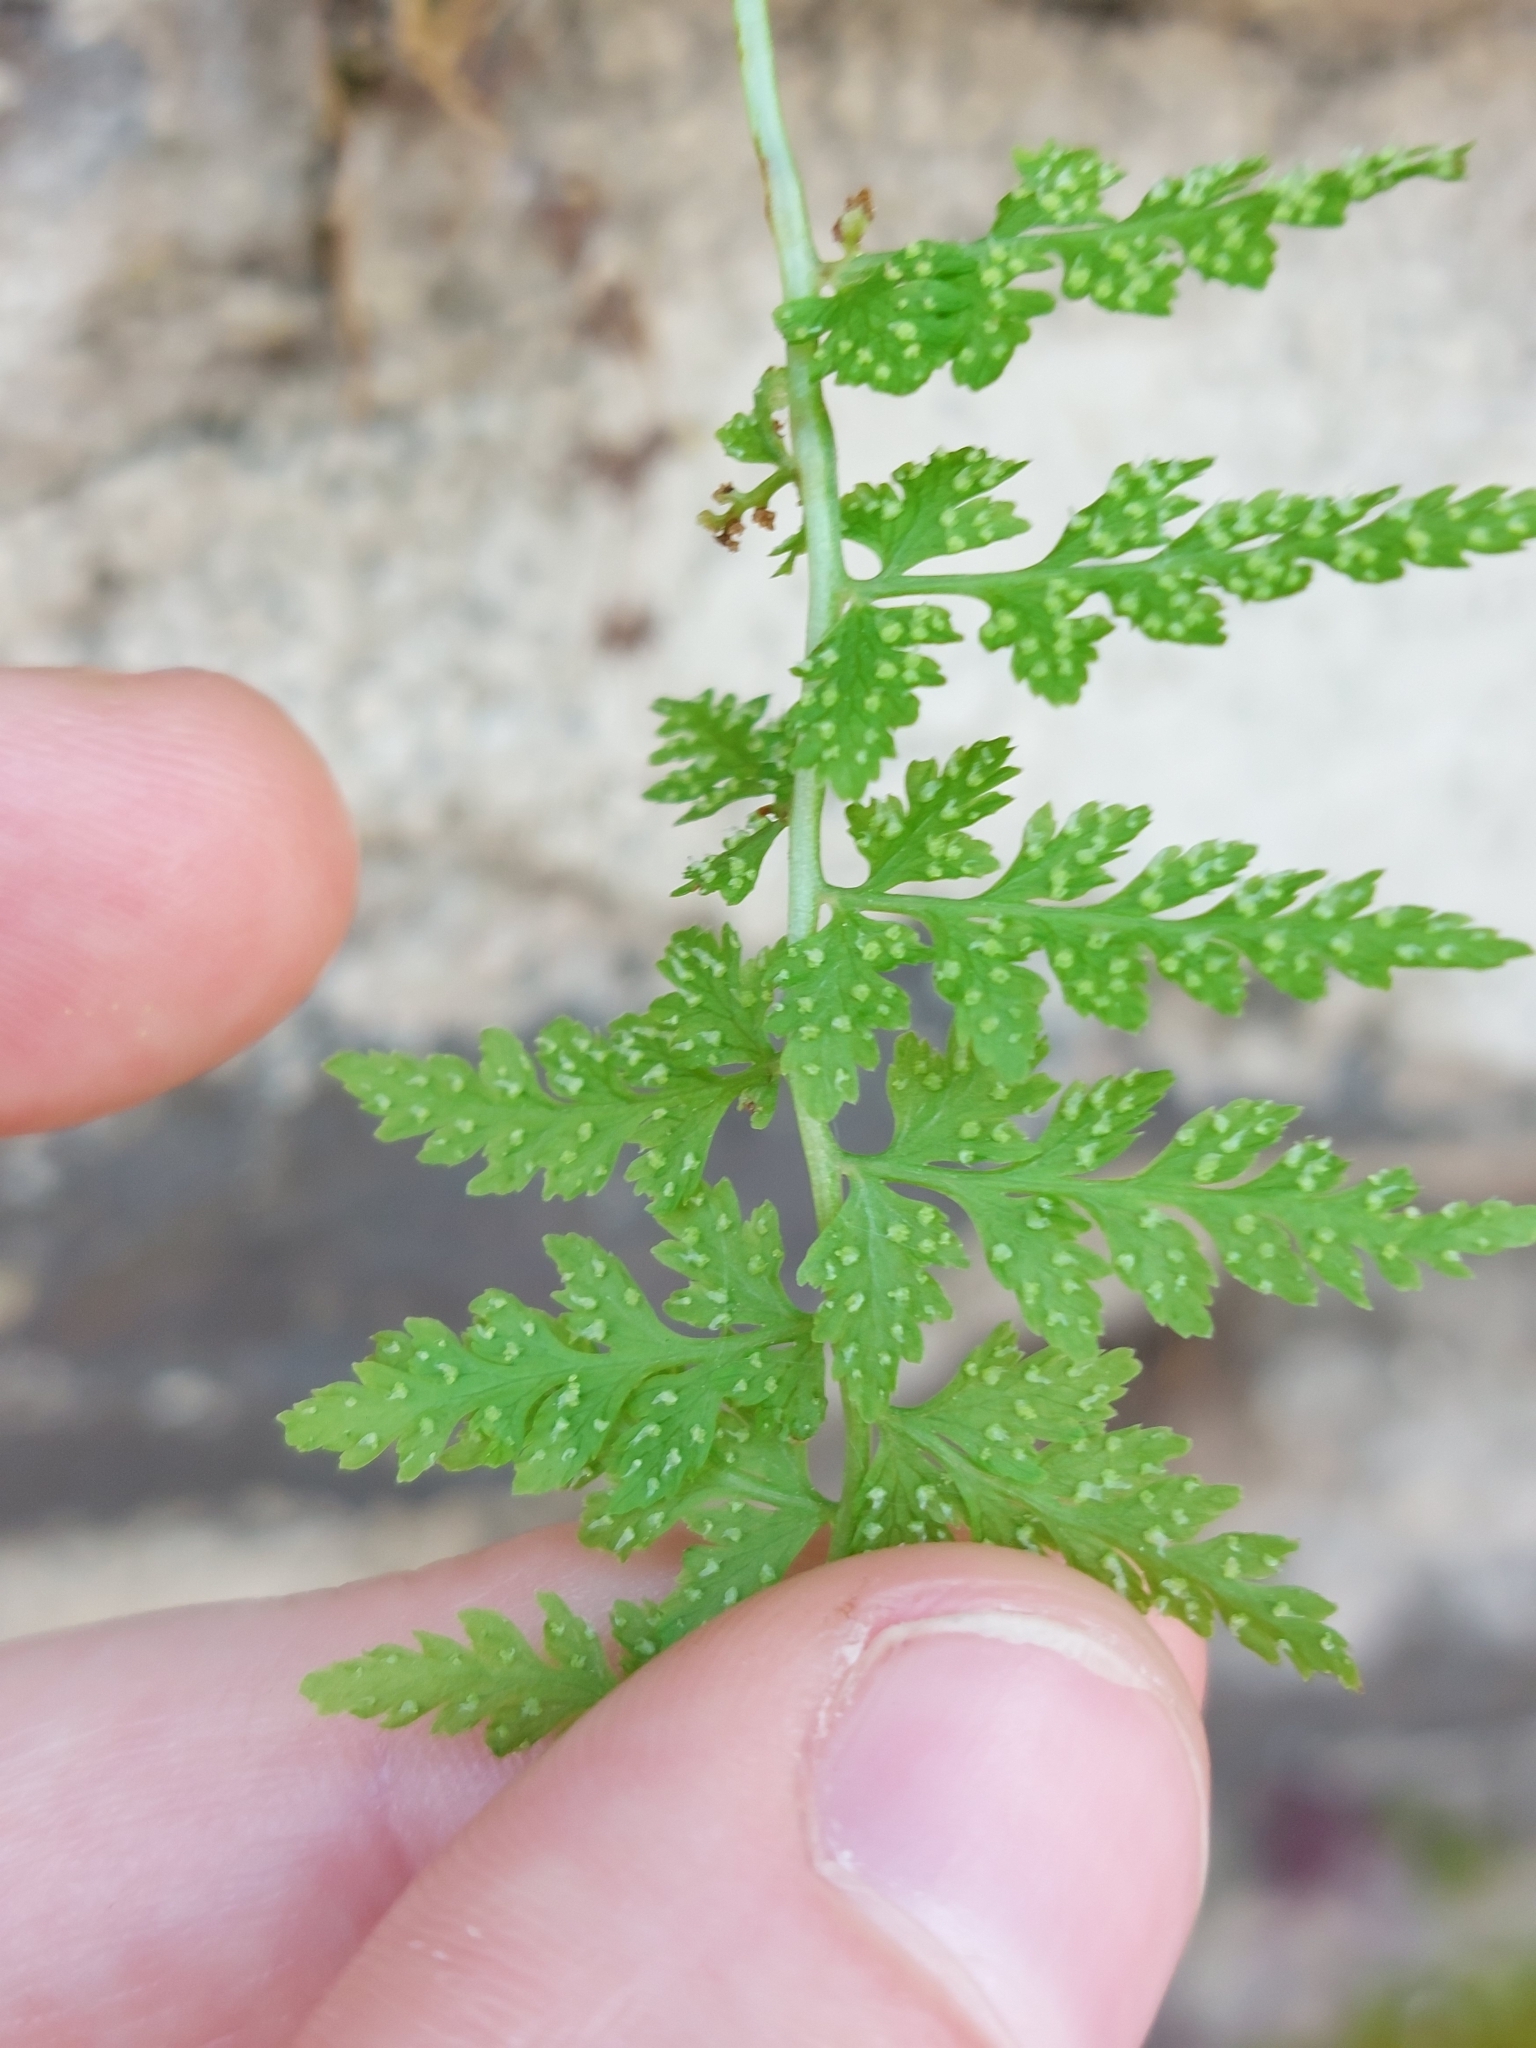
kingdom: Plantae
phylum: Tracheophyta
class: Polypodiopsida
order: Polypodiales
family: Cystopteridaceae
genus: Cystopteris
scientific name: Cystopteris fragilis
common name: Brittle bladder fern
